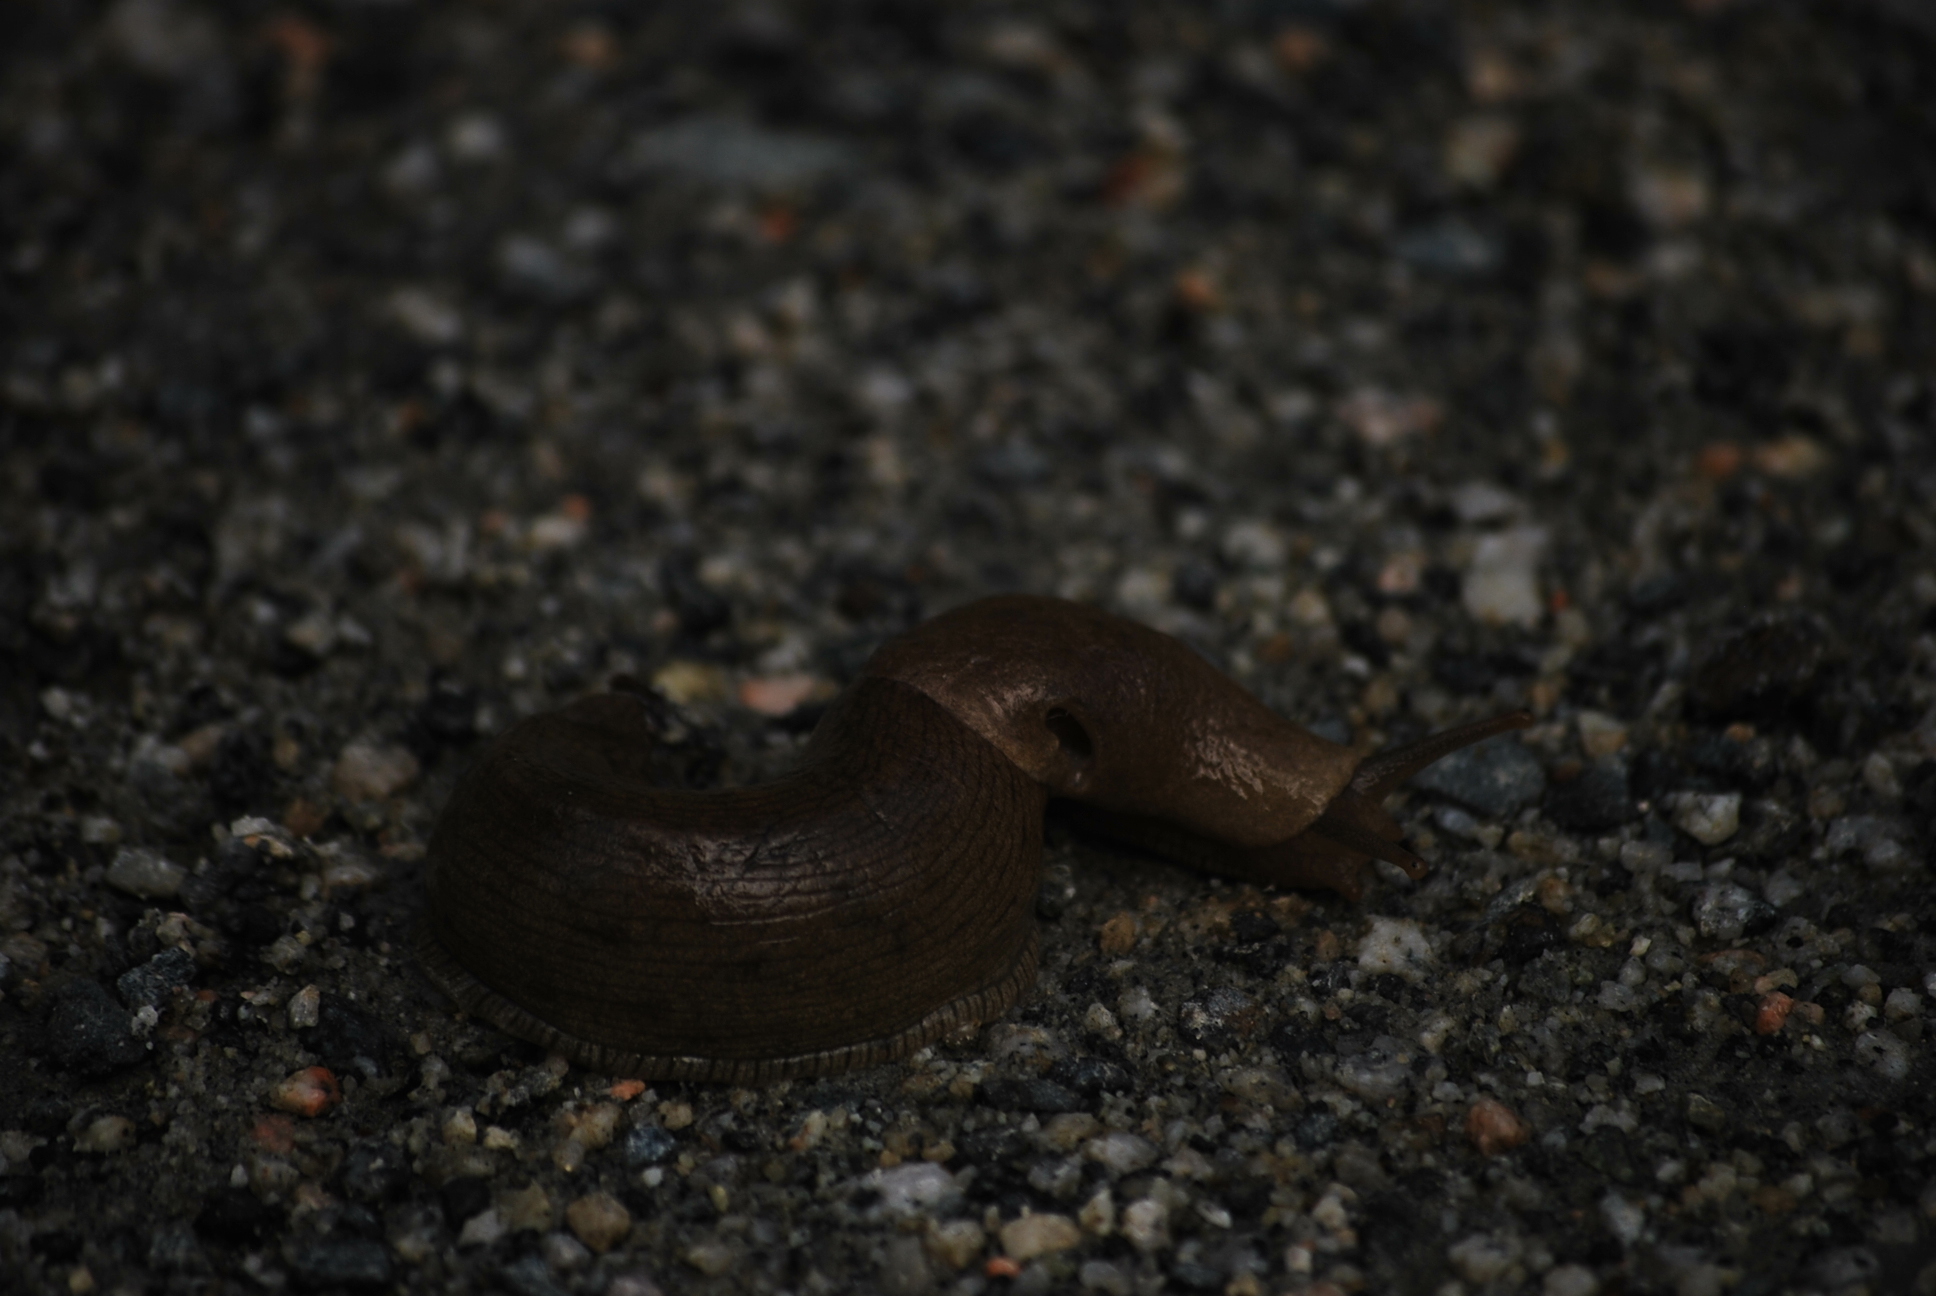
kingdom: Animalia
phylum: Mollusca
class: Gastropoda
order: Stylommatophora
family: Ariolimacidae
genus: Ariolimax
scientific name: Ariolimax columbianus
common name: Pacific banana slug
